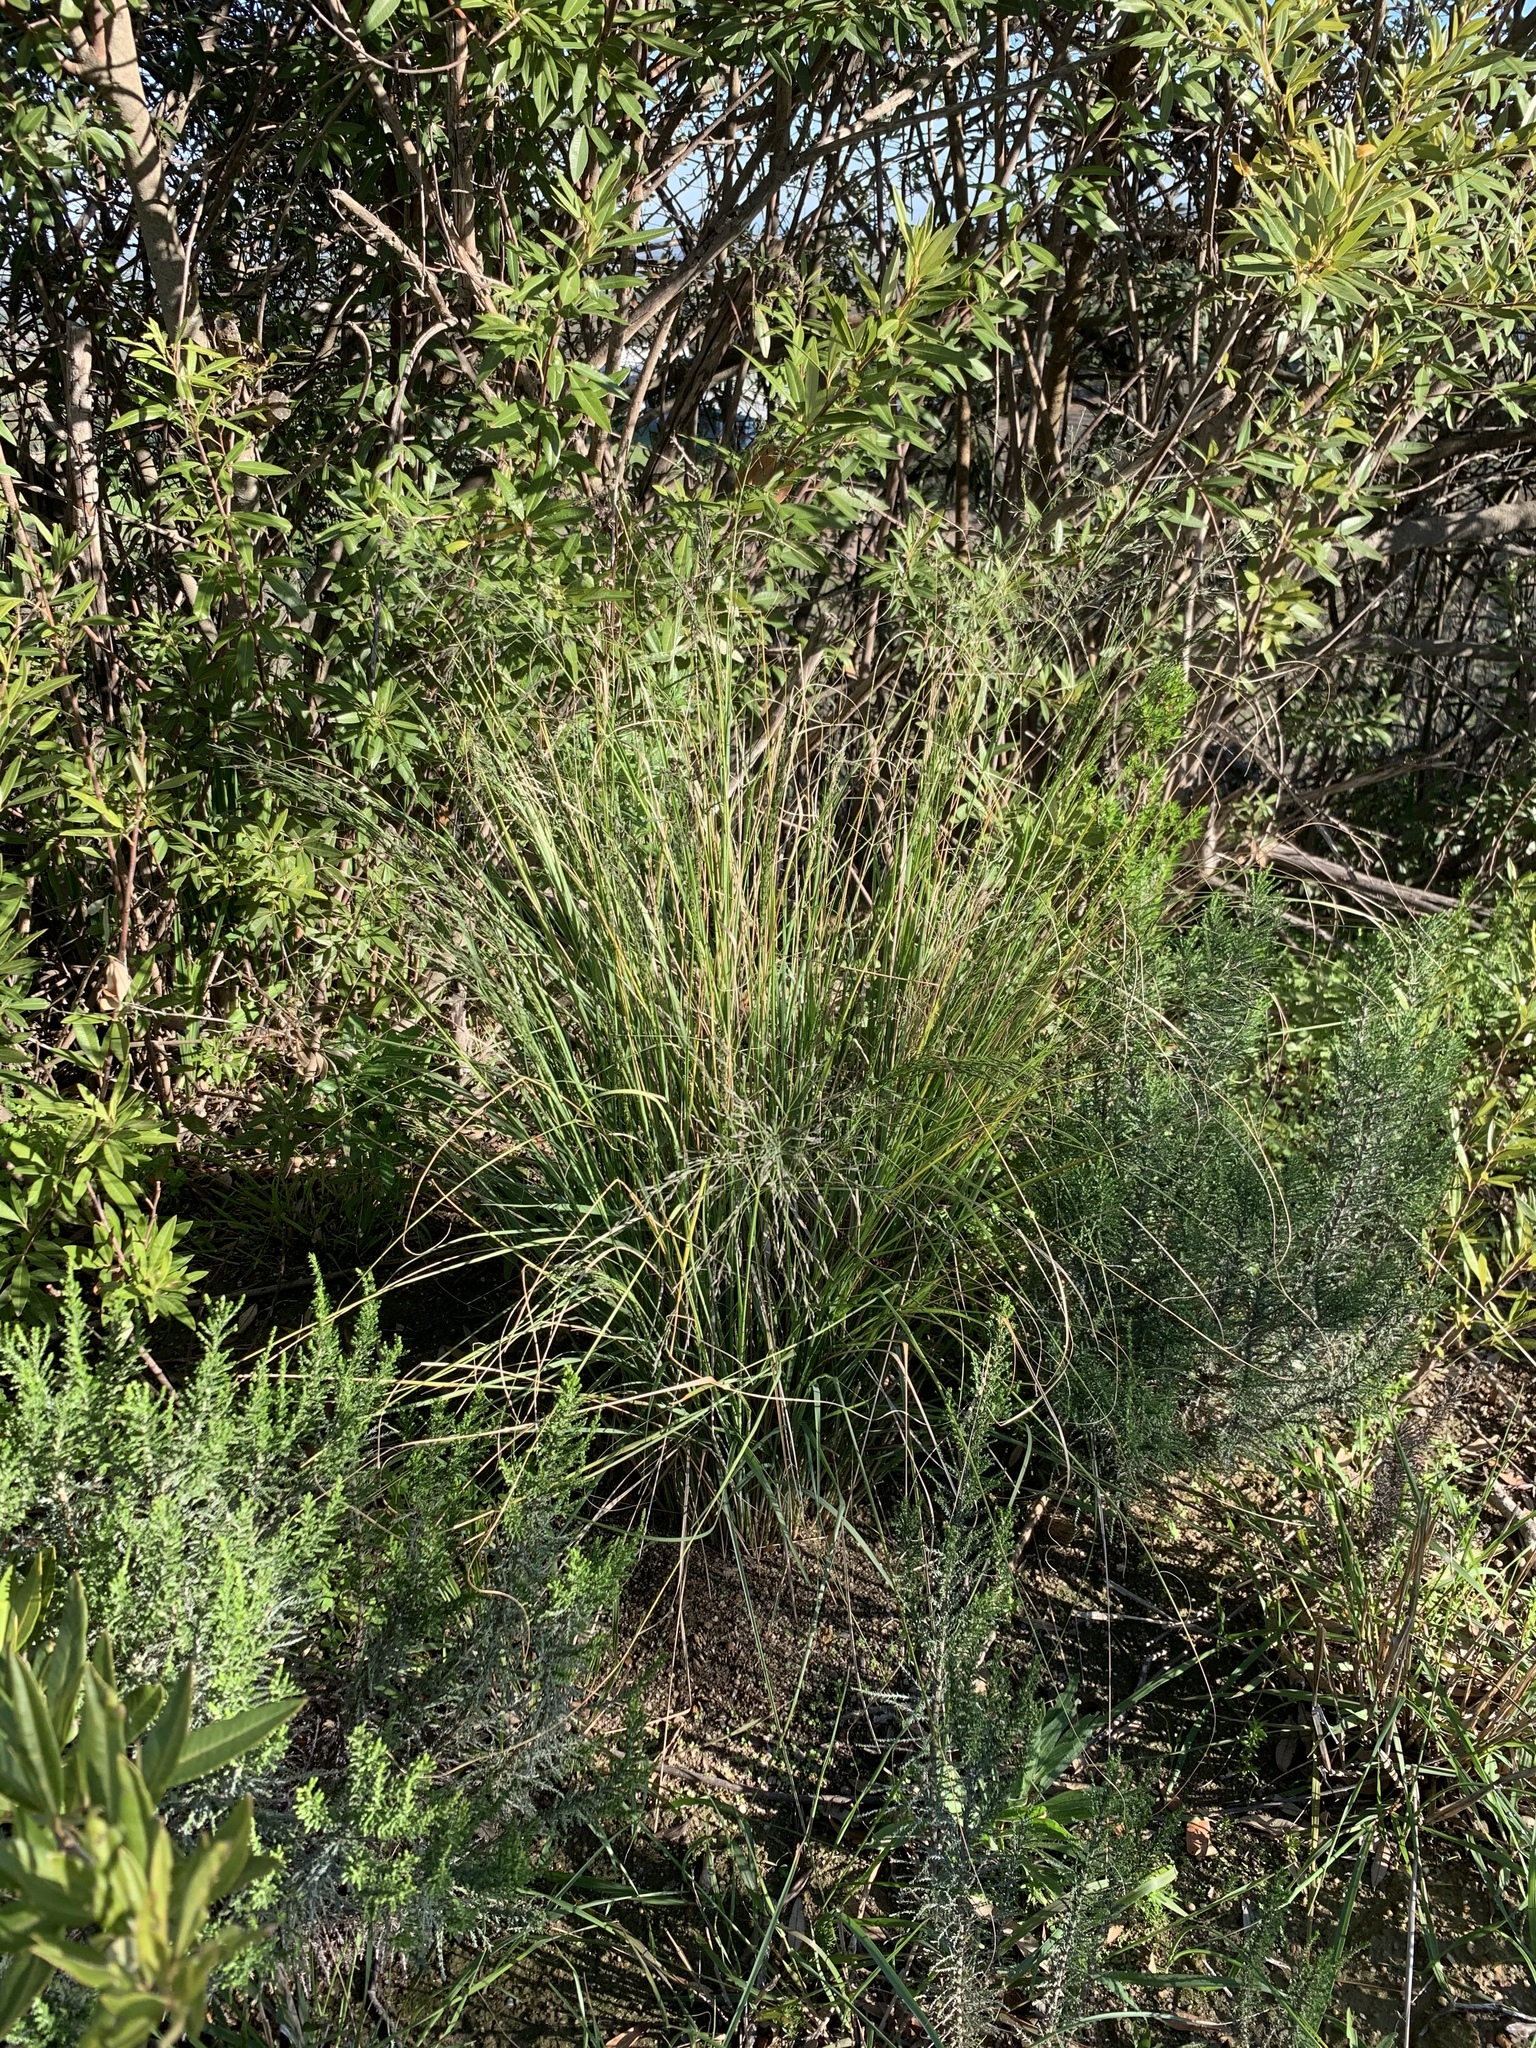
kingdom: Plantae
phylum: Tracheophyta
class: Liliopsida
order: Poales
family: Poaceae
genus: Eragrostis
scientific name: Eragrostis curvula
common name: African love-grass
